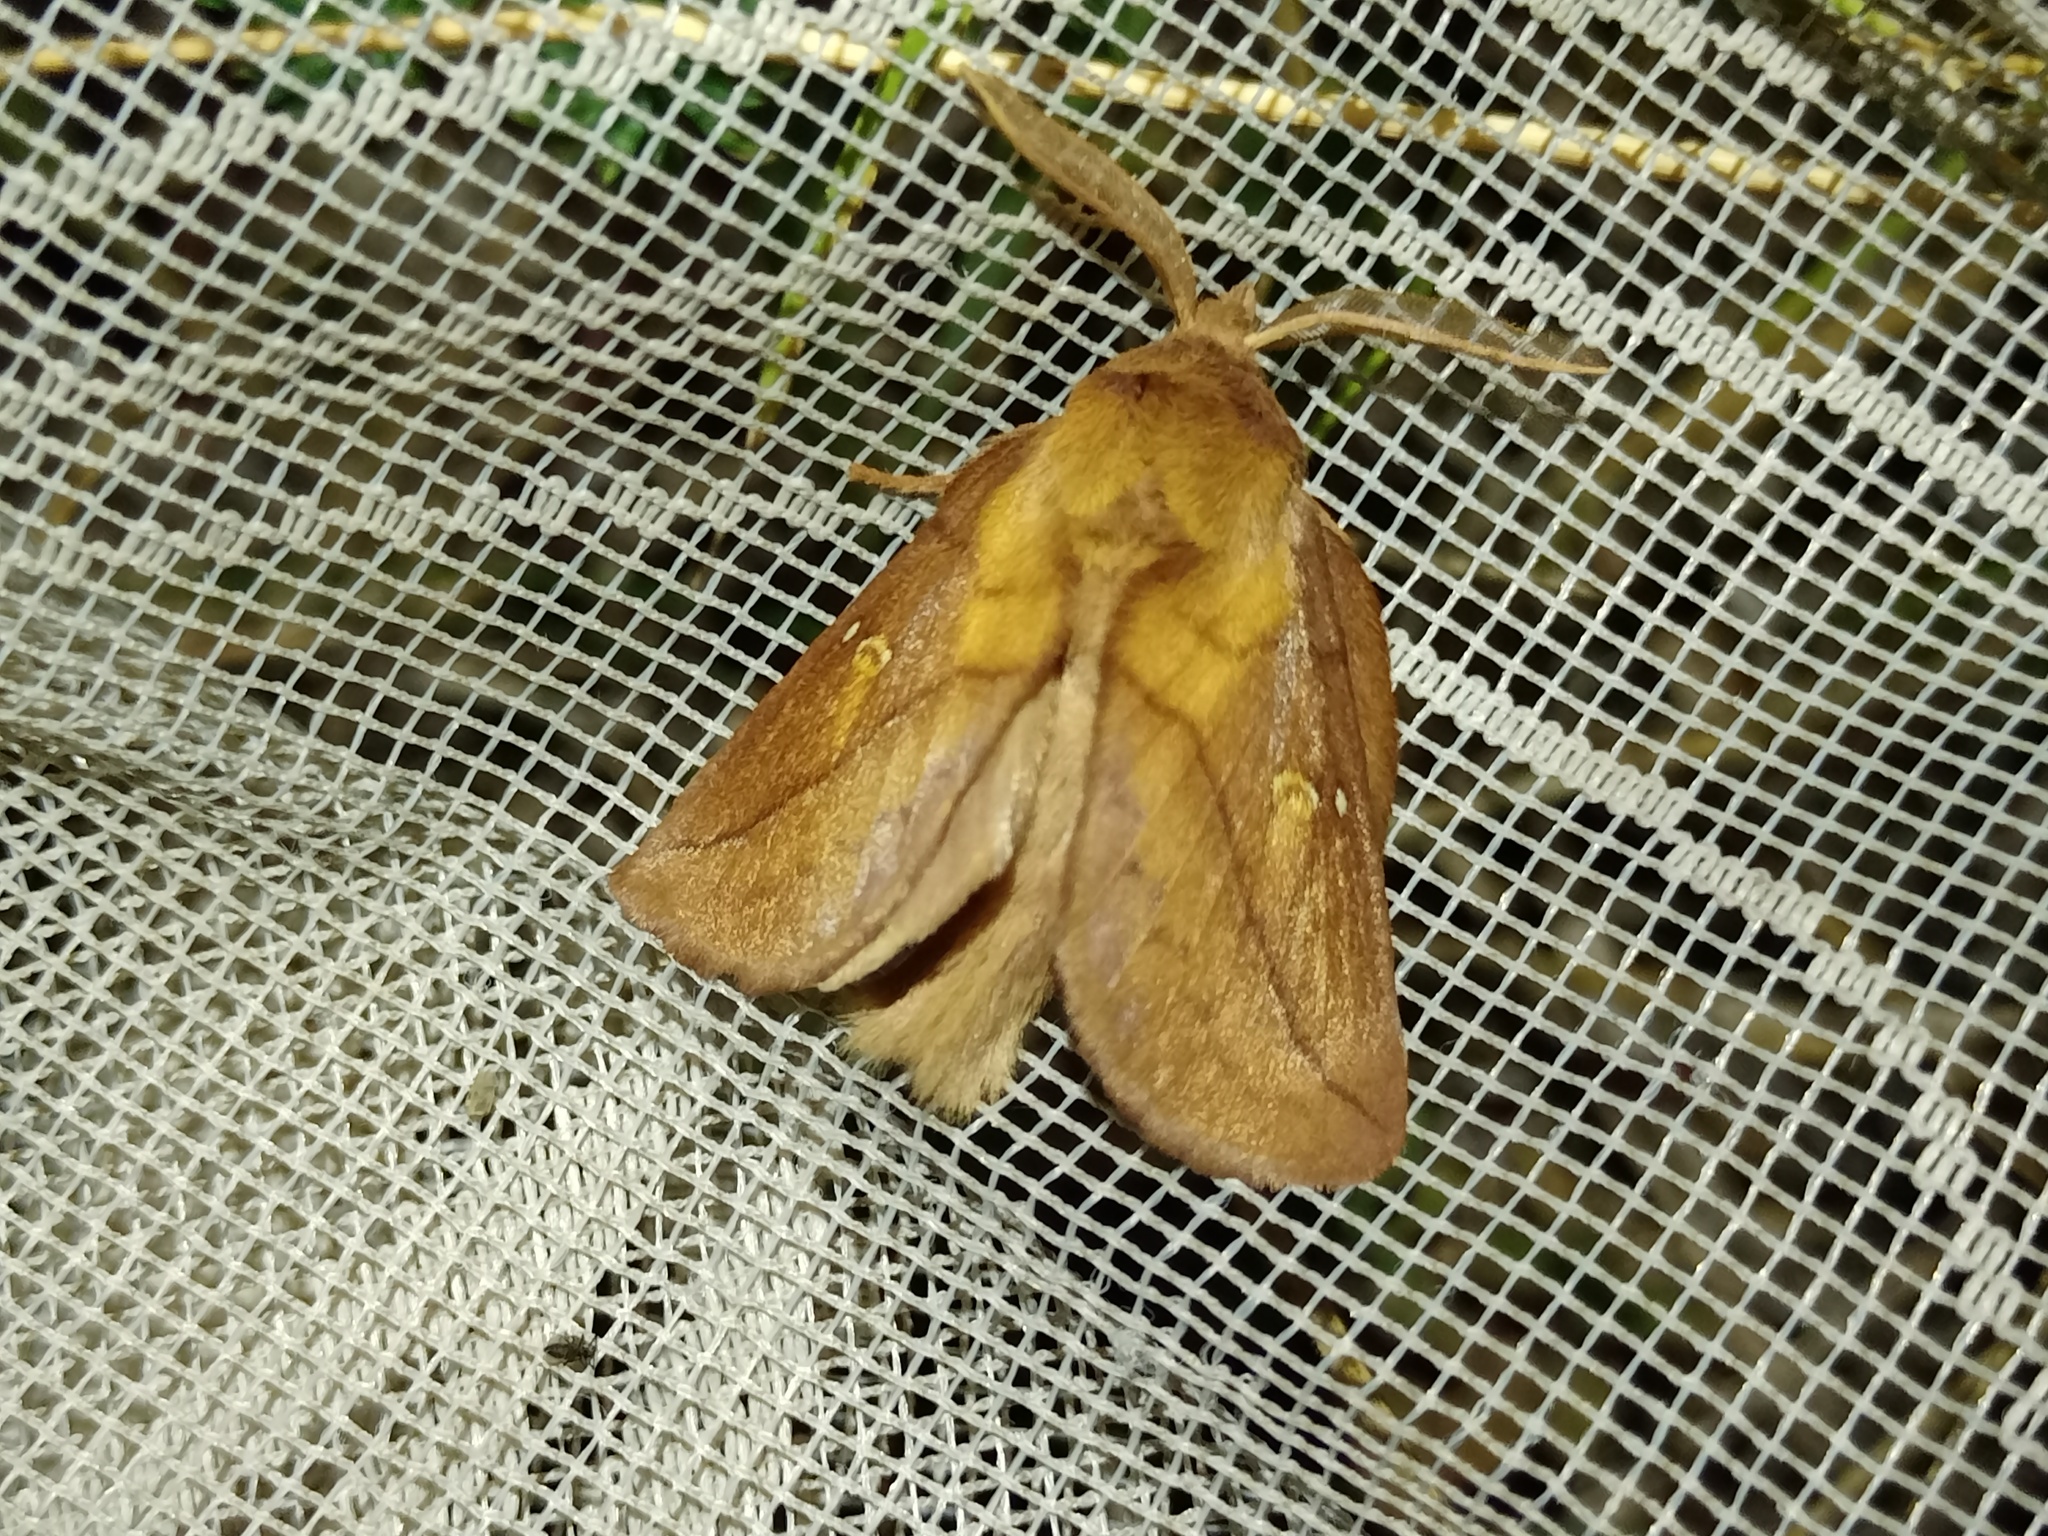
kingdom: Animalia
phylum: Arthropoda
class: Insecta
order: Lepidoptera
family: Lasiocampidae
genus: Euthrix
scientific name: Euthrix potatoria
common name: Drinker
